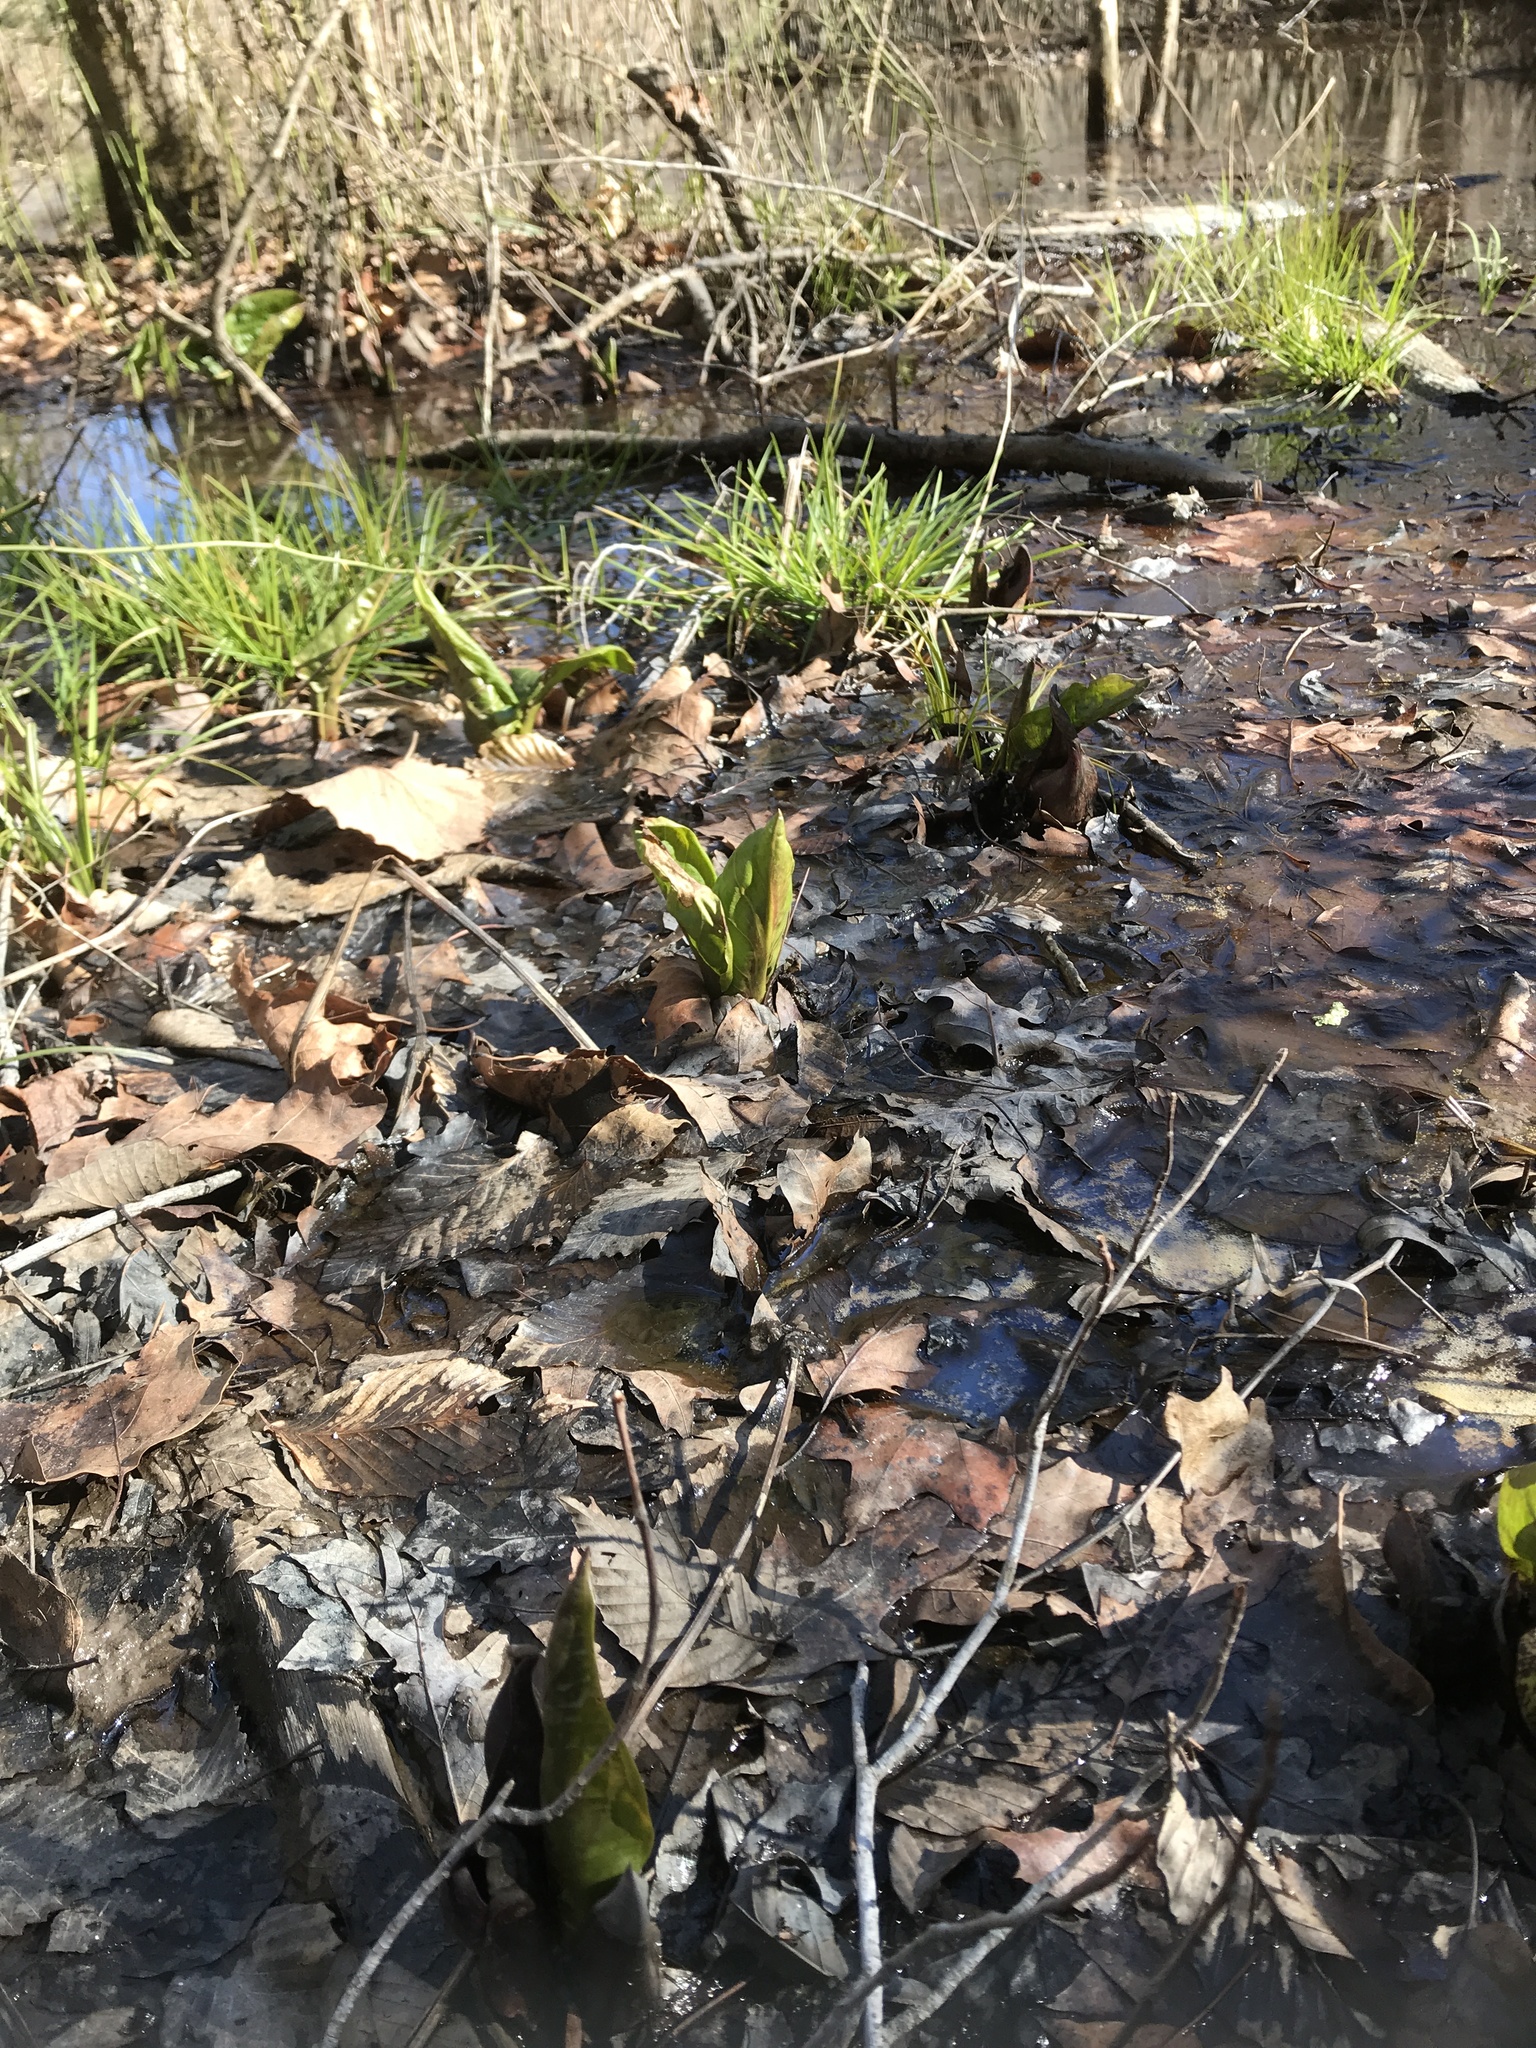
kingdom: Plantae
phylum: Tracheophyta
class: Liliopsida
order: Alismatales
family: Araceae
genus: Symplocarpus
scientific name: Symplocarpus foetidus
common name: Eastern skunk cabbage
